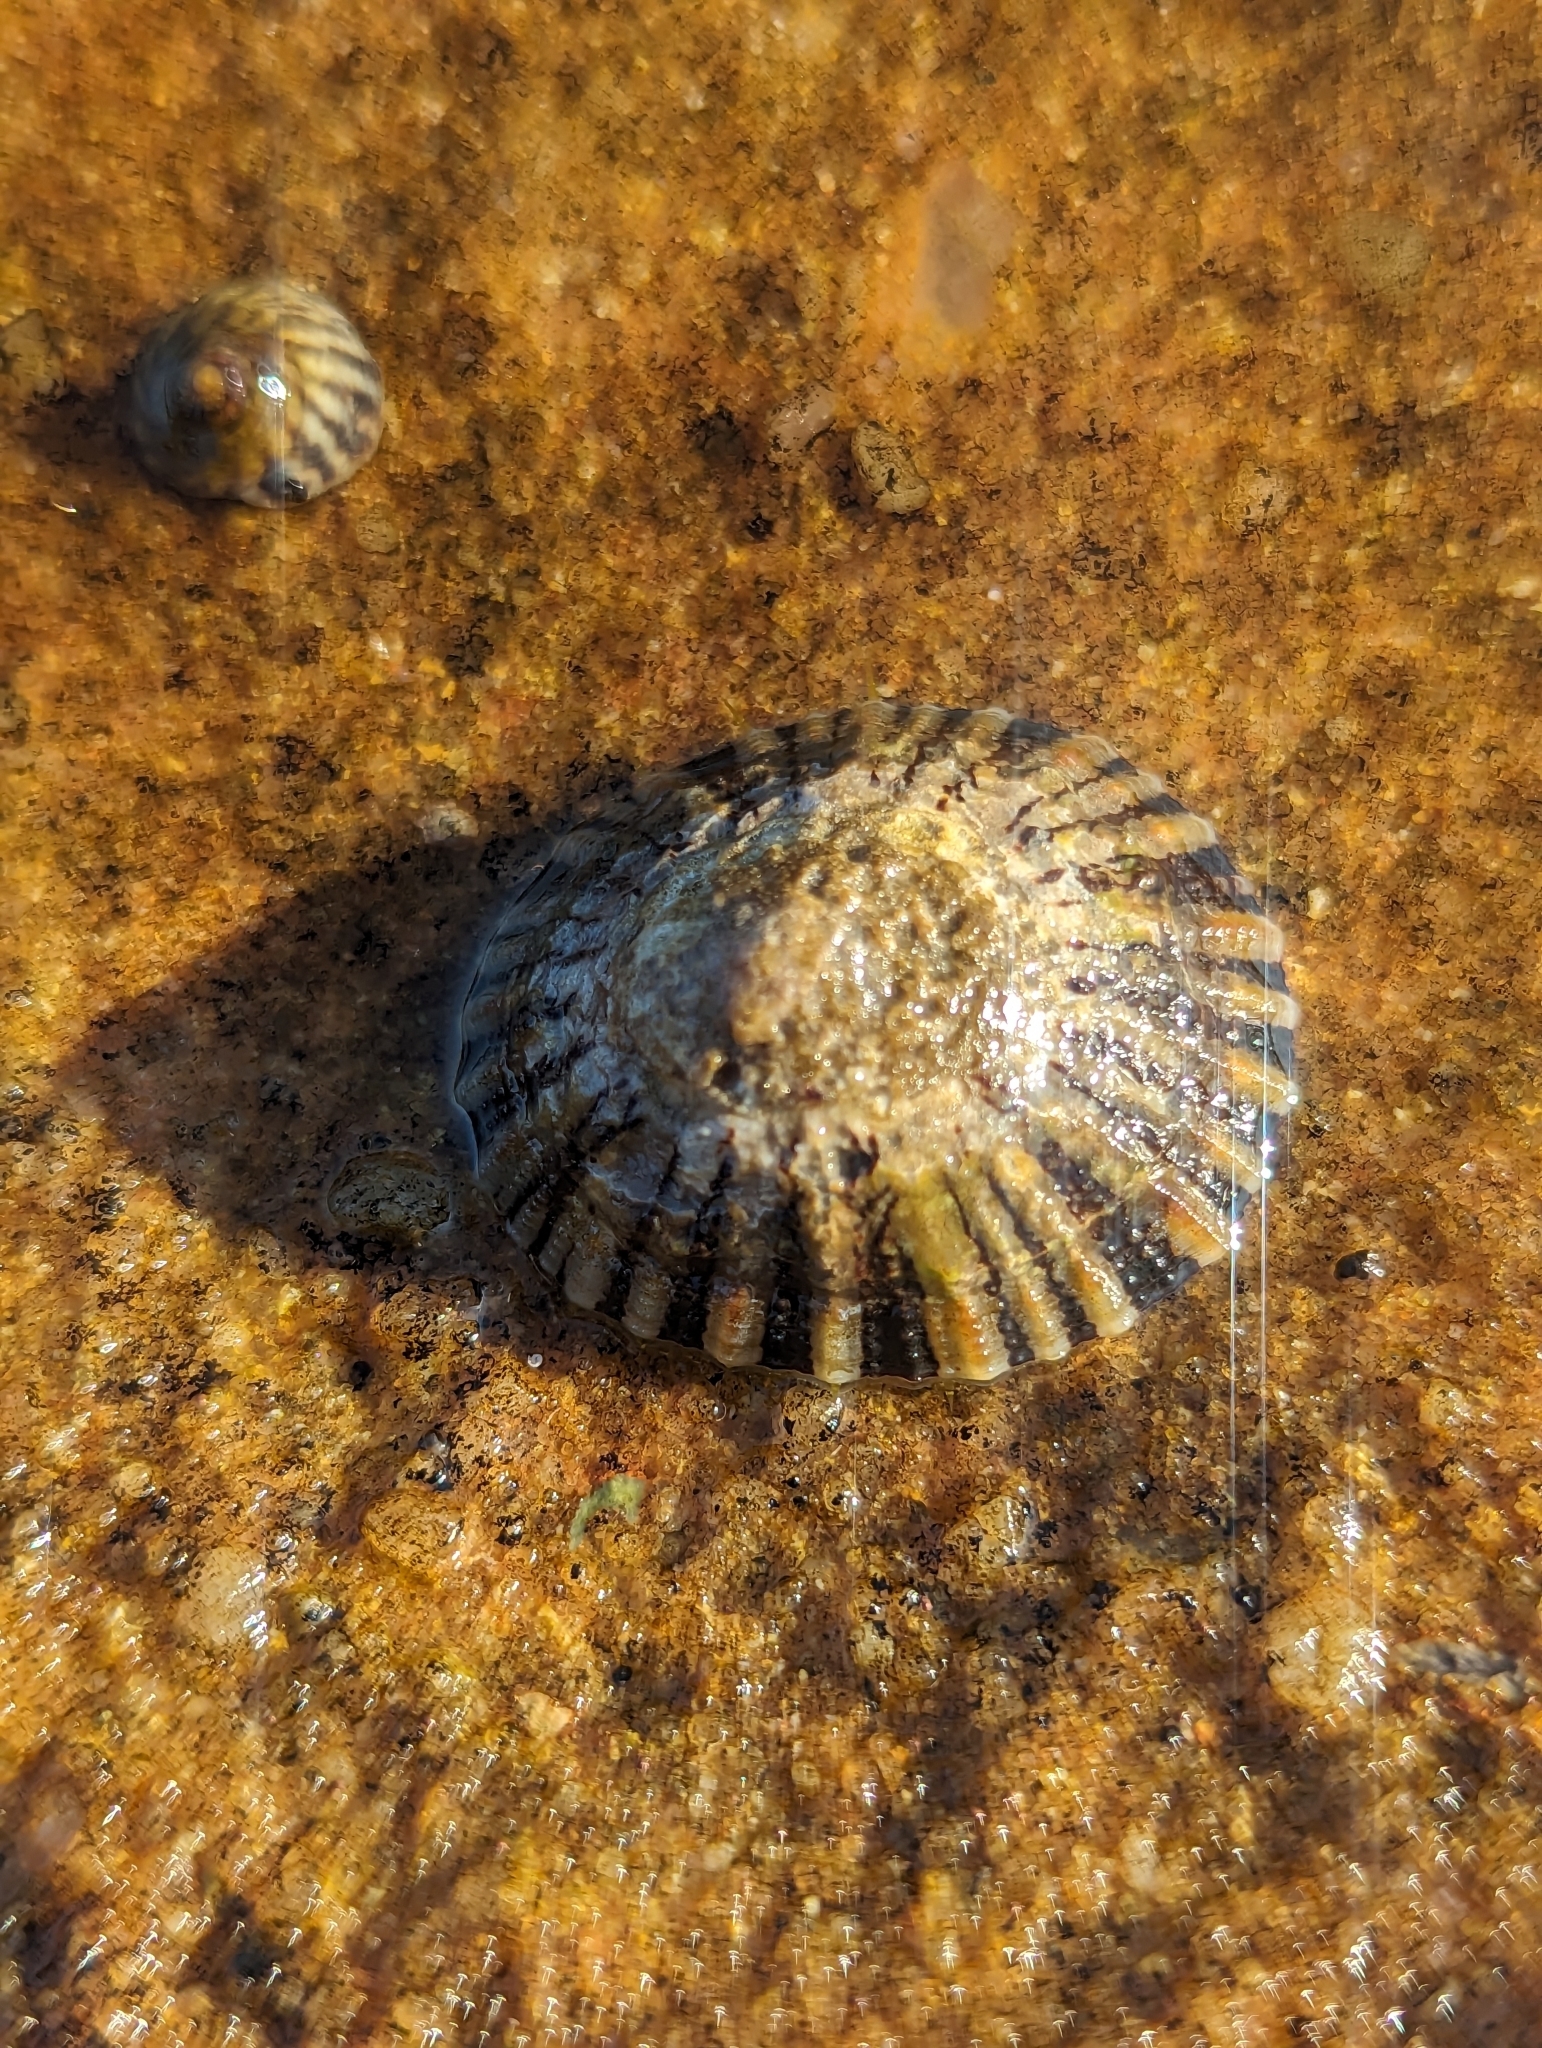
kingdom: Animalia
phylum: Mollusca
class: Gastropoda
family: Nacellidae
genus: Cellana
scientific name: Cellana tramoserica
